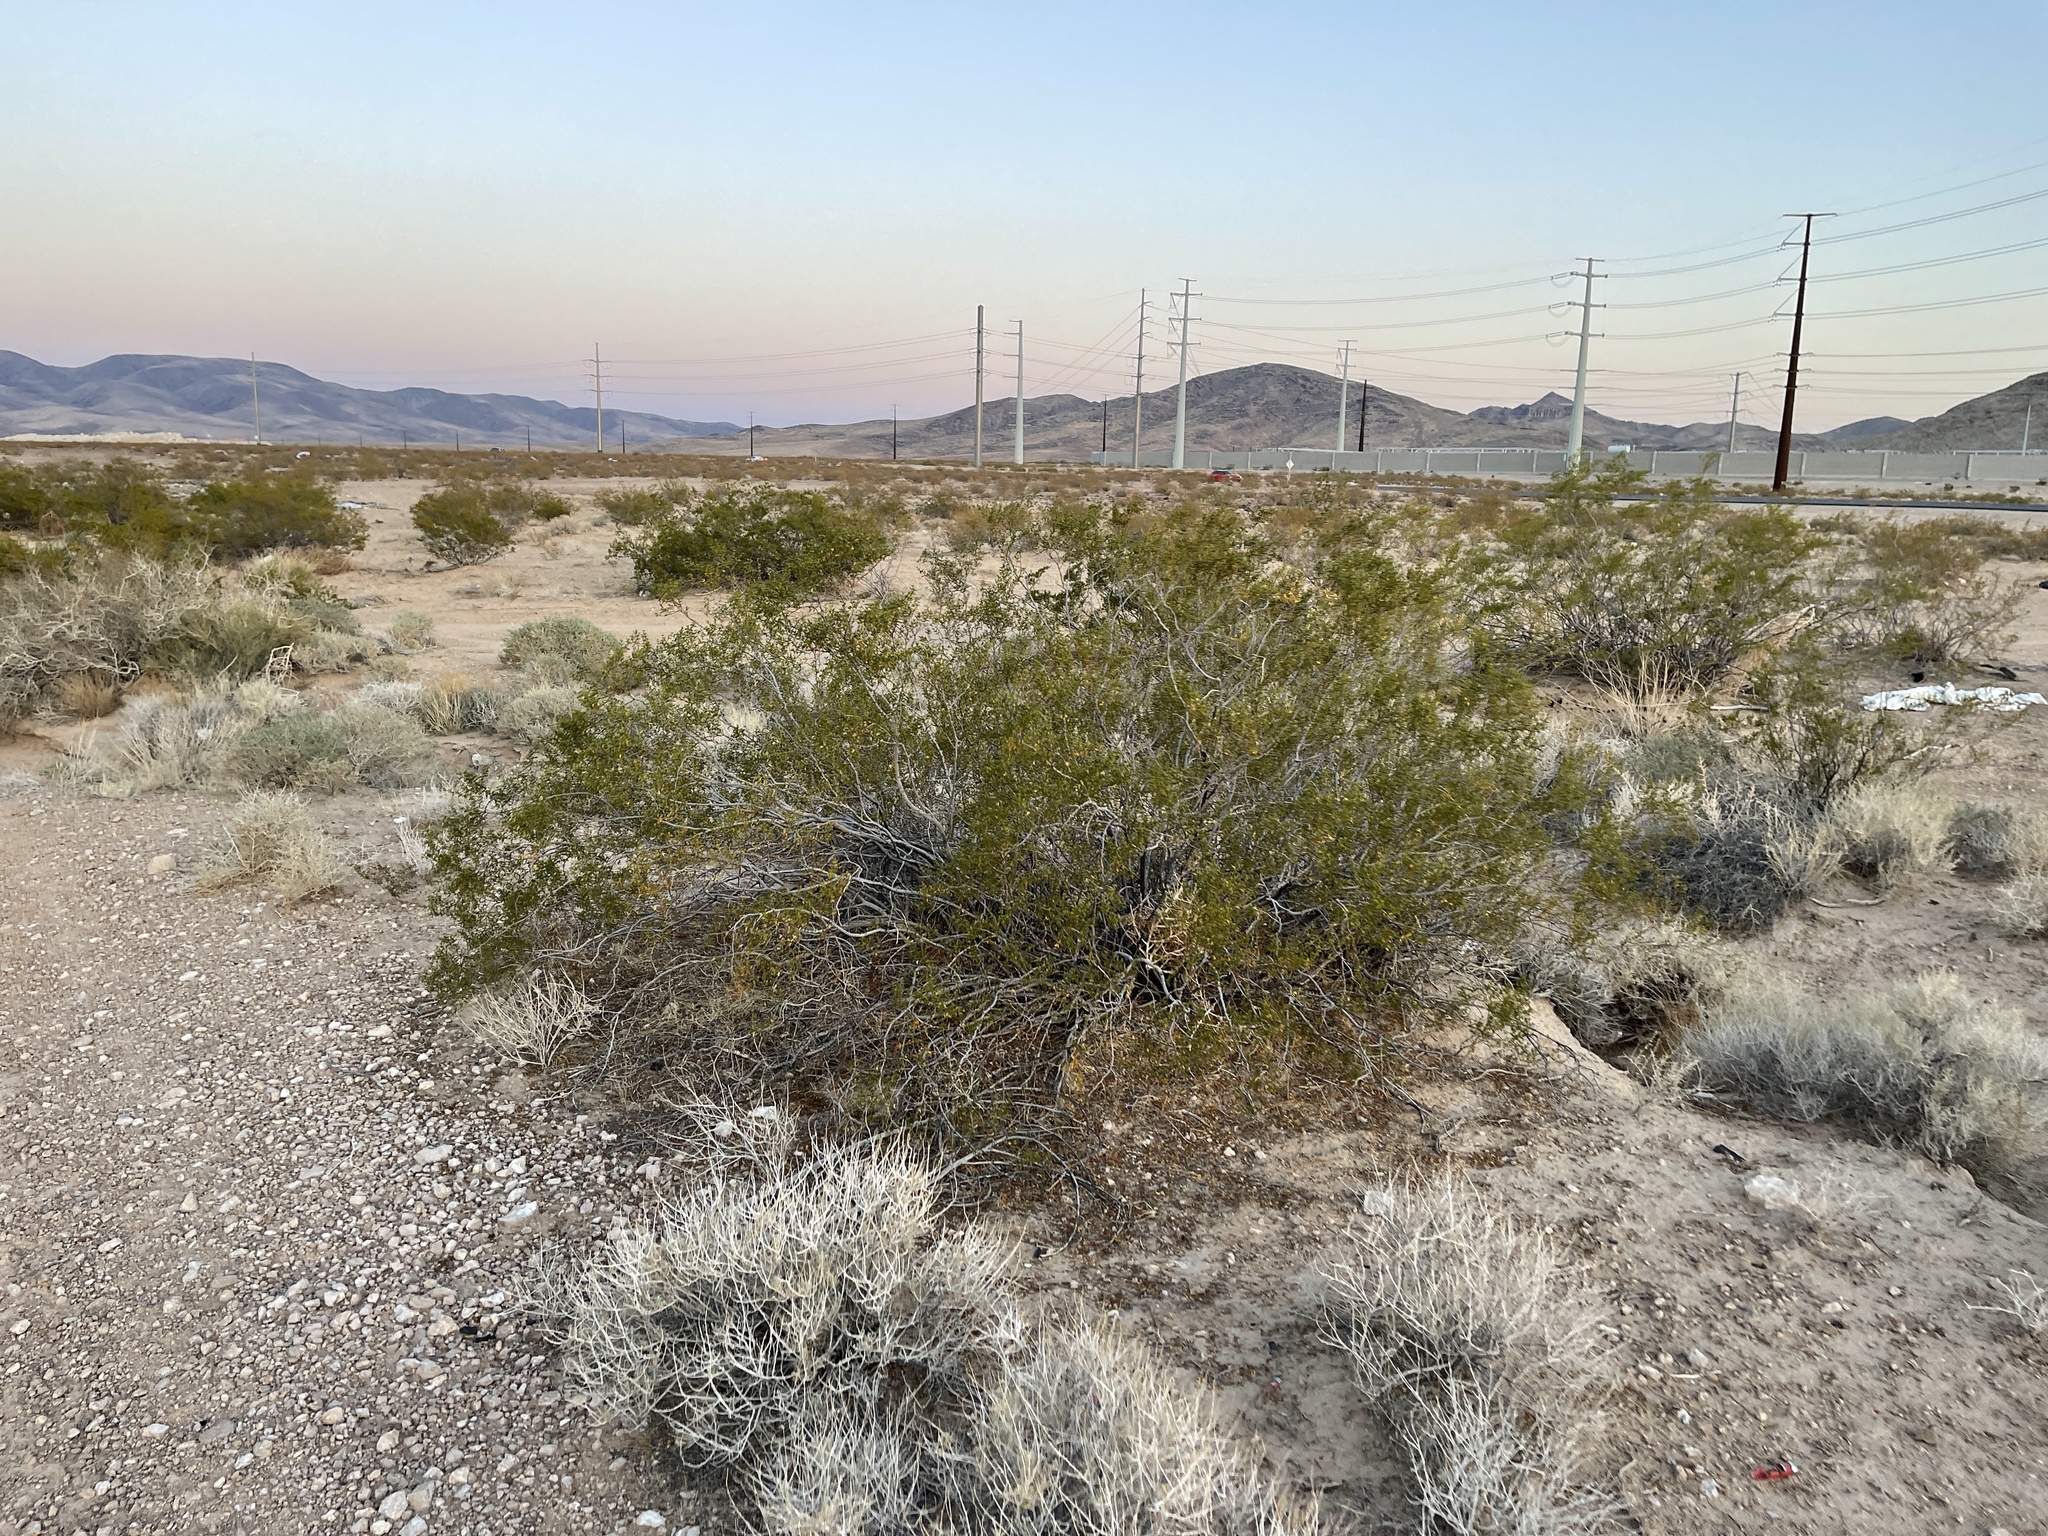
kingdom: Plantae
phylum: Tracheophyta
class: Magnoliopsida
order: Zygophyllales
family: Zygophyllaceae
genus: Larrea
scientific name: Larrea tridentata
